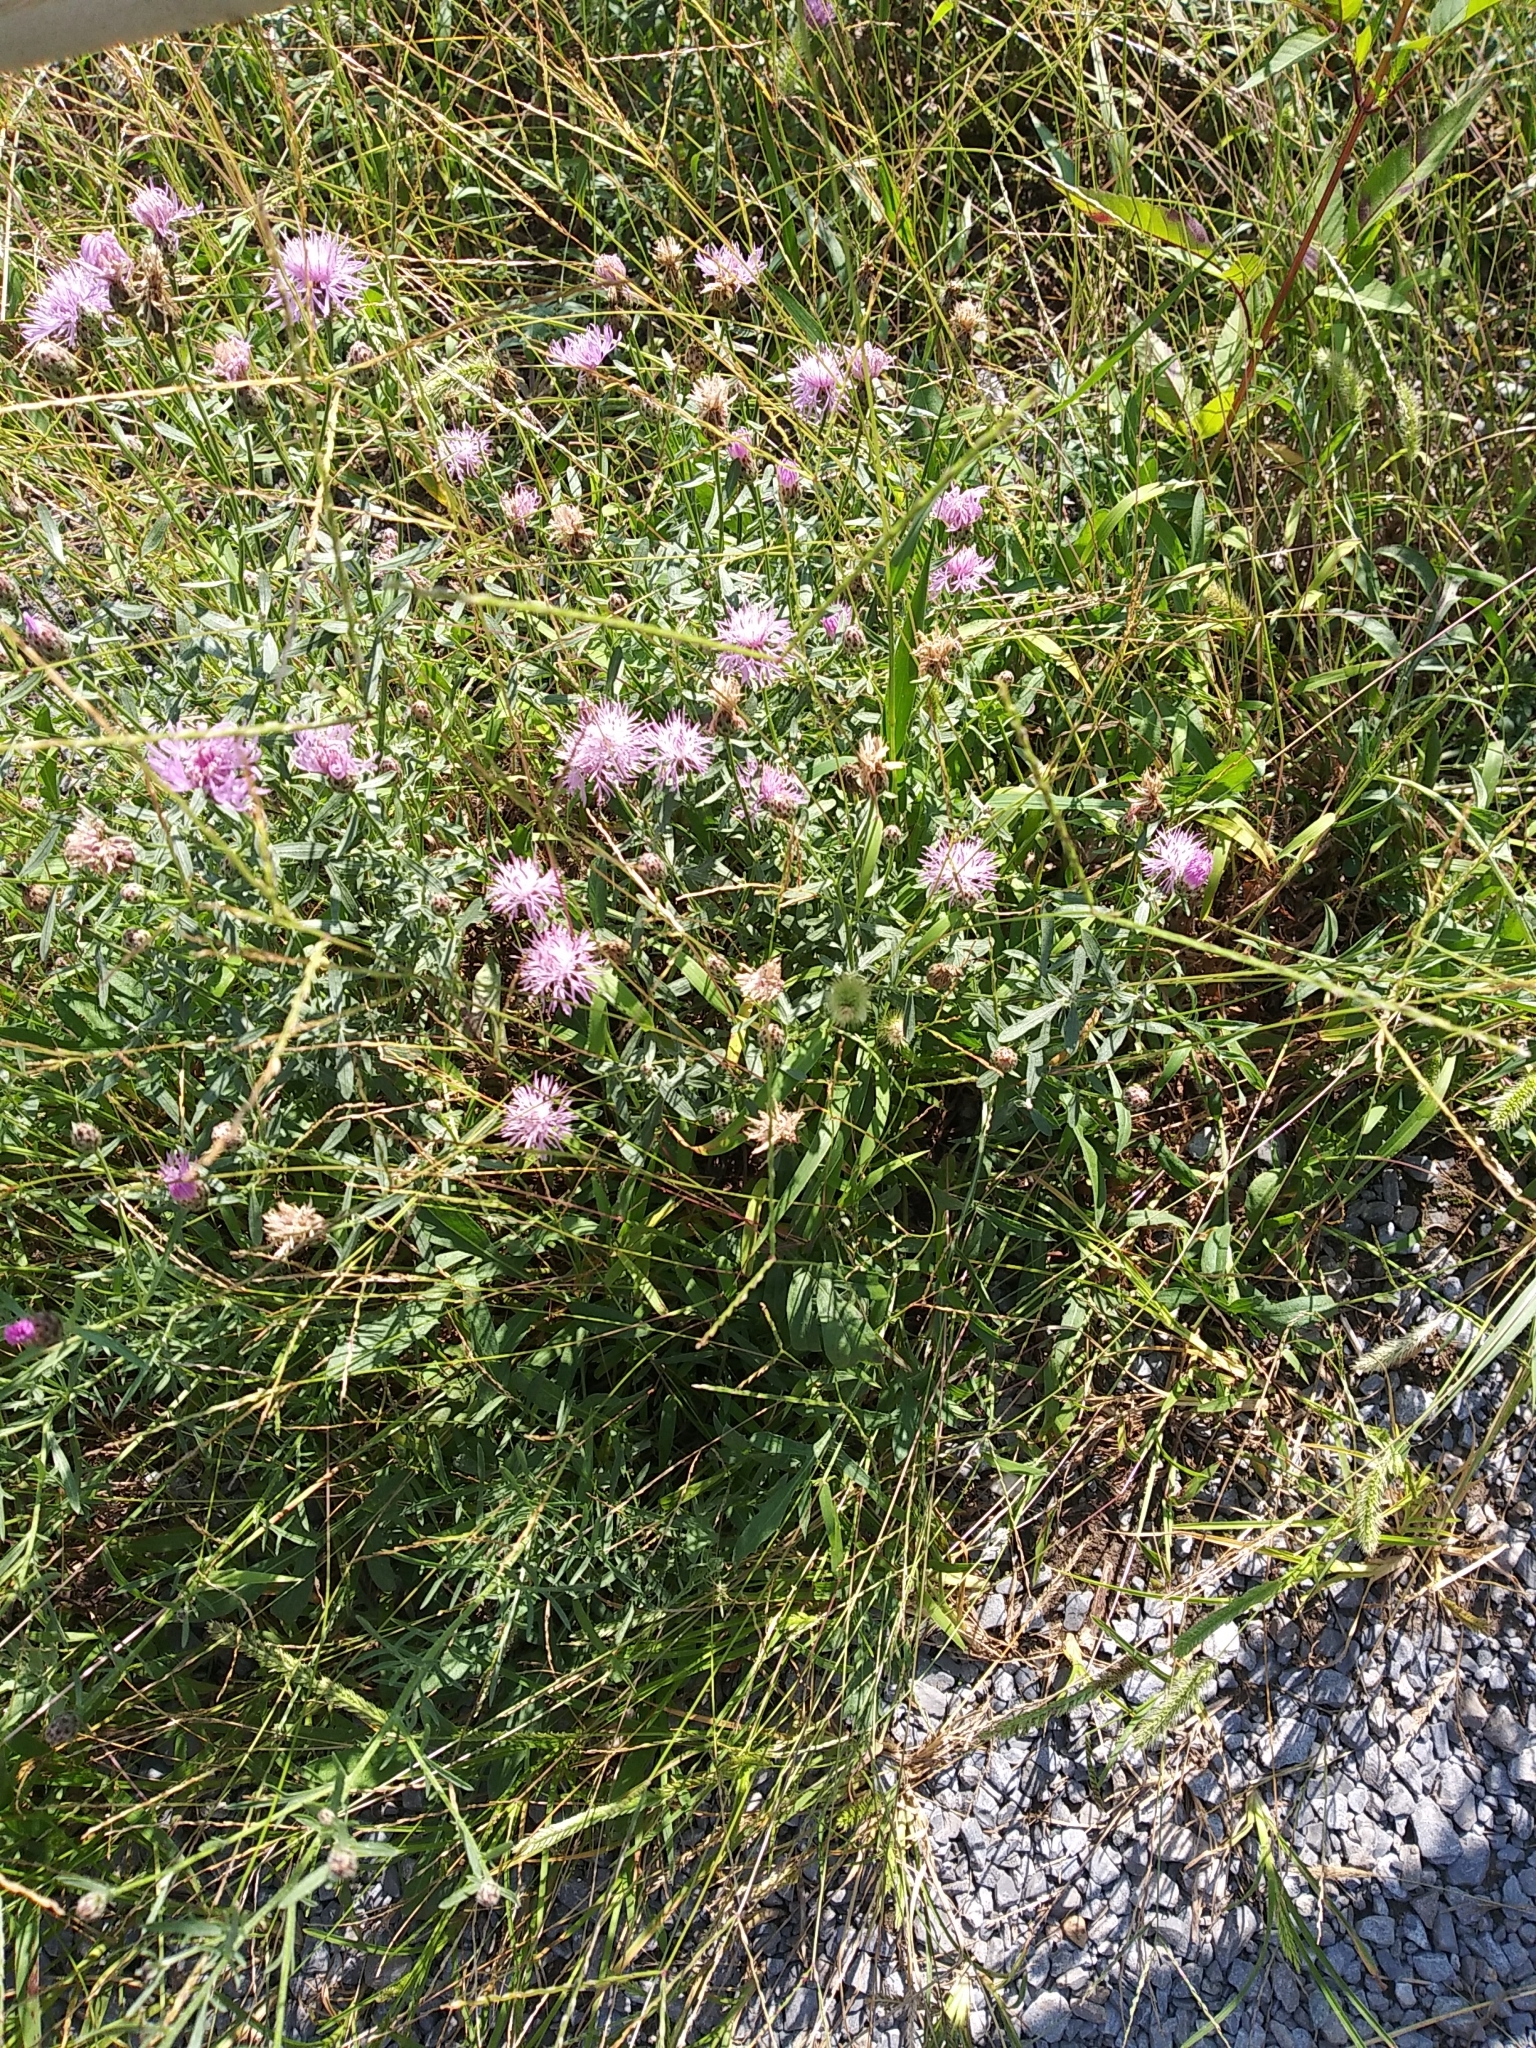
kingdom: Plantae
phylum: Tracheophyta
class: Magnoliopsida
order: Asterales
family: Asteraceae
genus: Centaurea
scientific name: Centaurea stoebe
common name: Spotted knapweed
